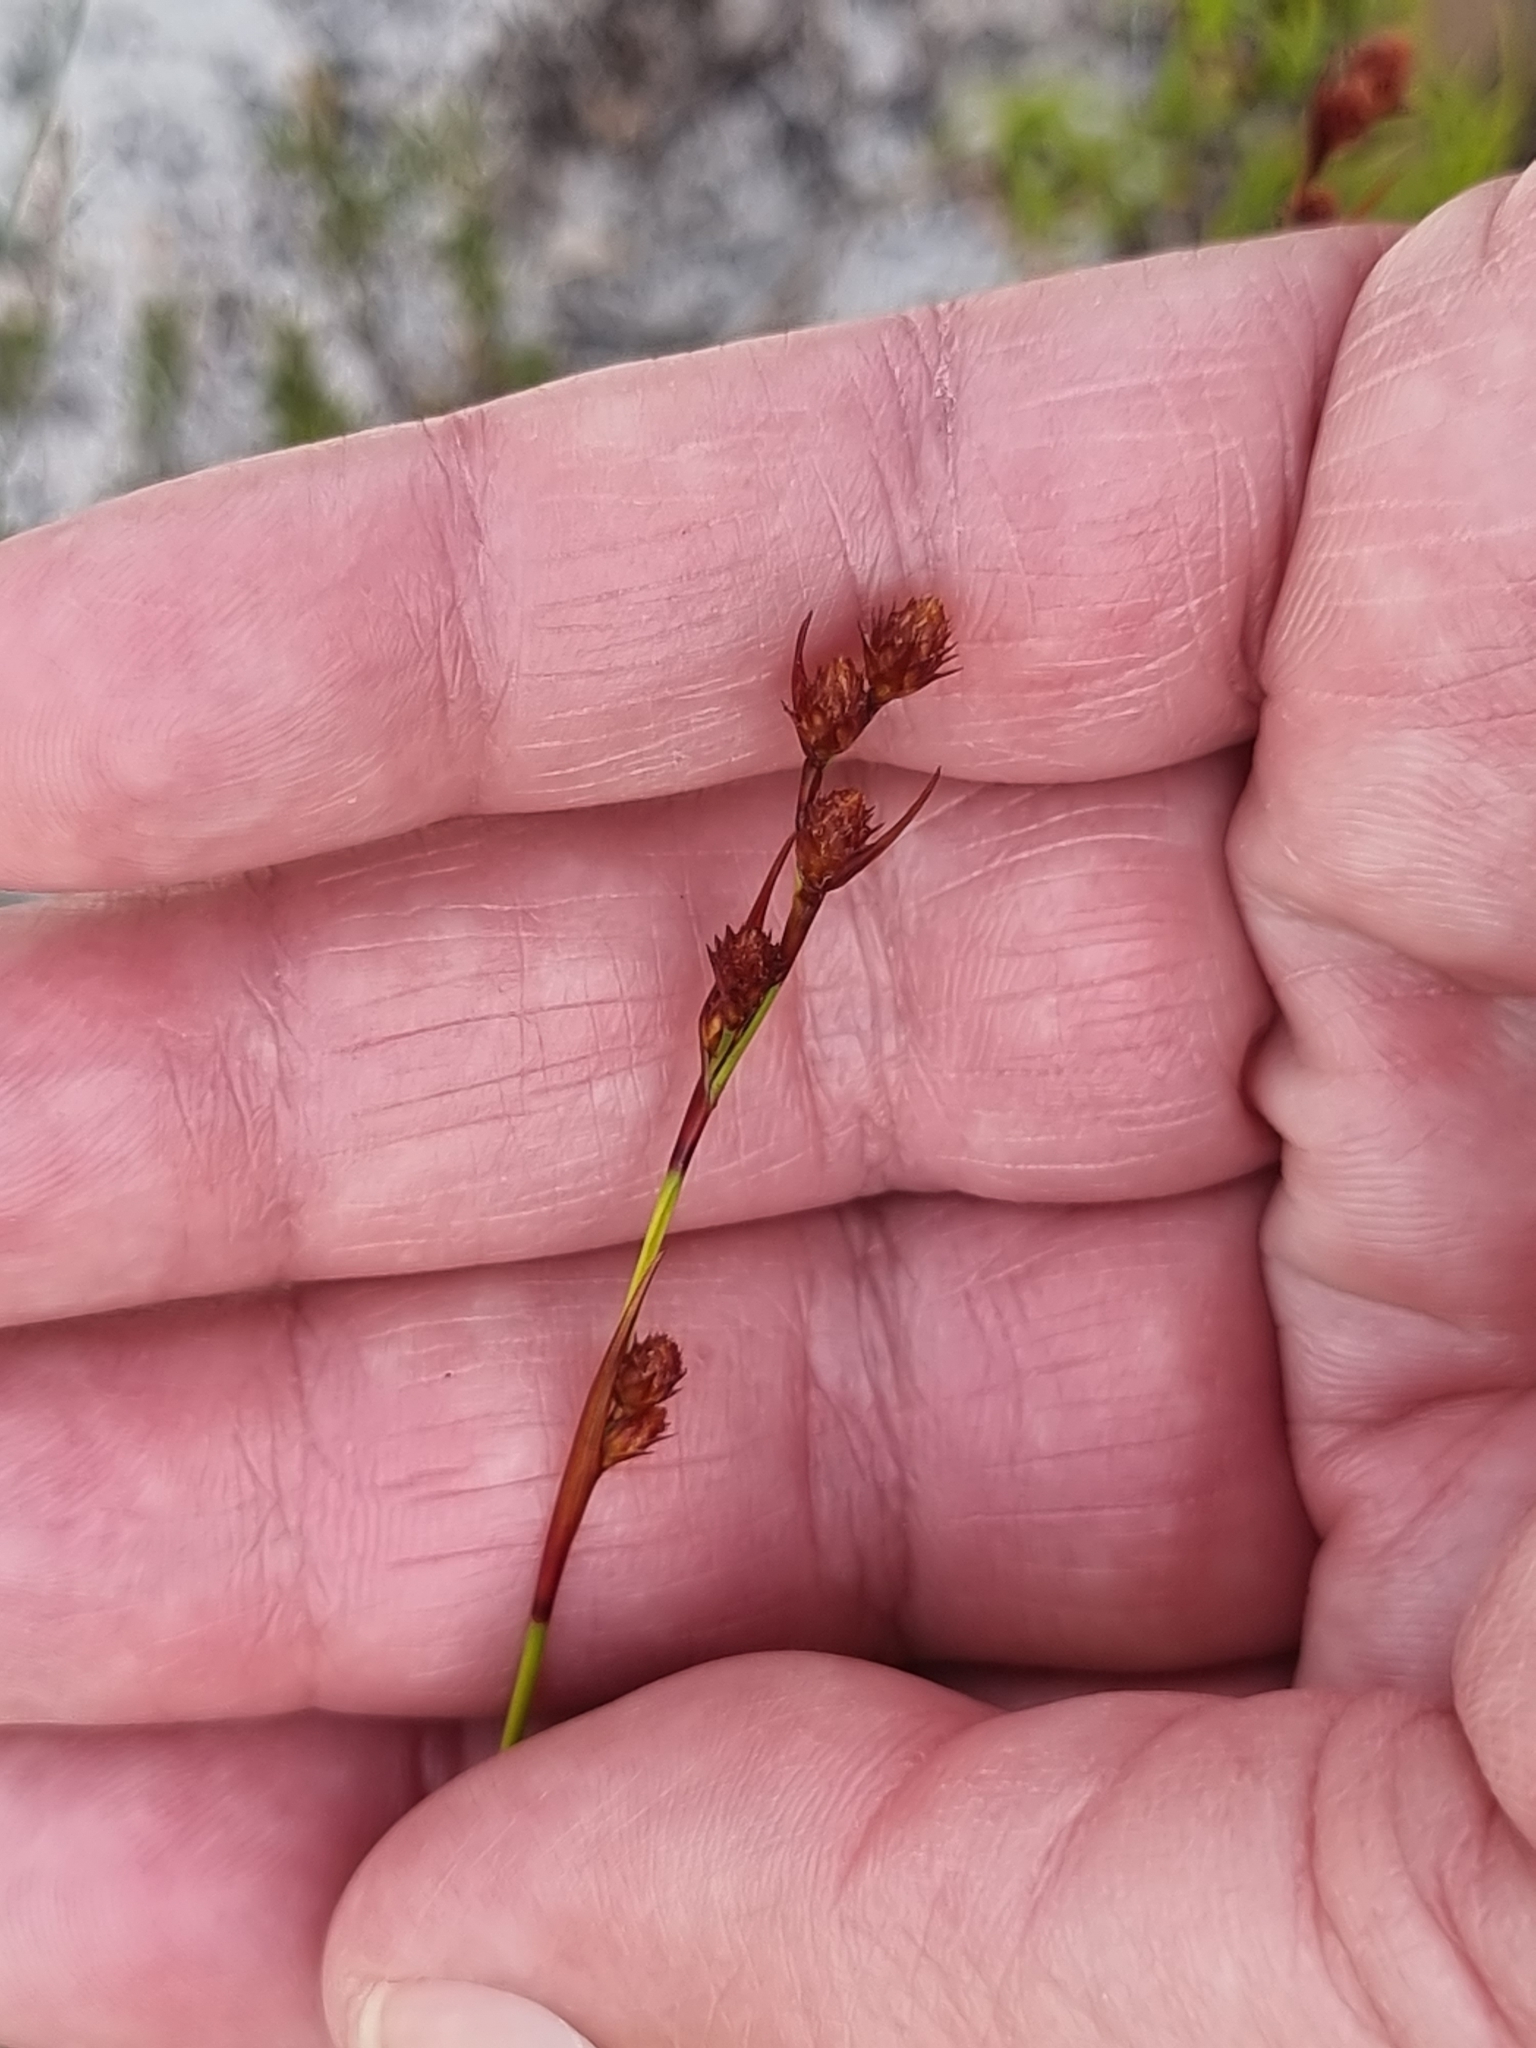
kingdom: Plantae
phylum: Tracheophyta
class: Liliopsida
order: Poales
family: Restionaceae
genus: Baloskion
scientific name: Baloskion tenuiculme
